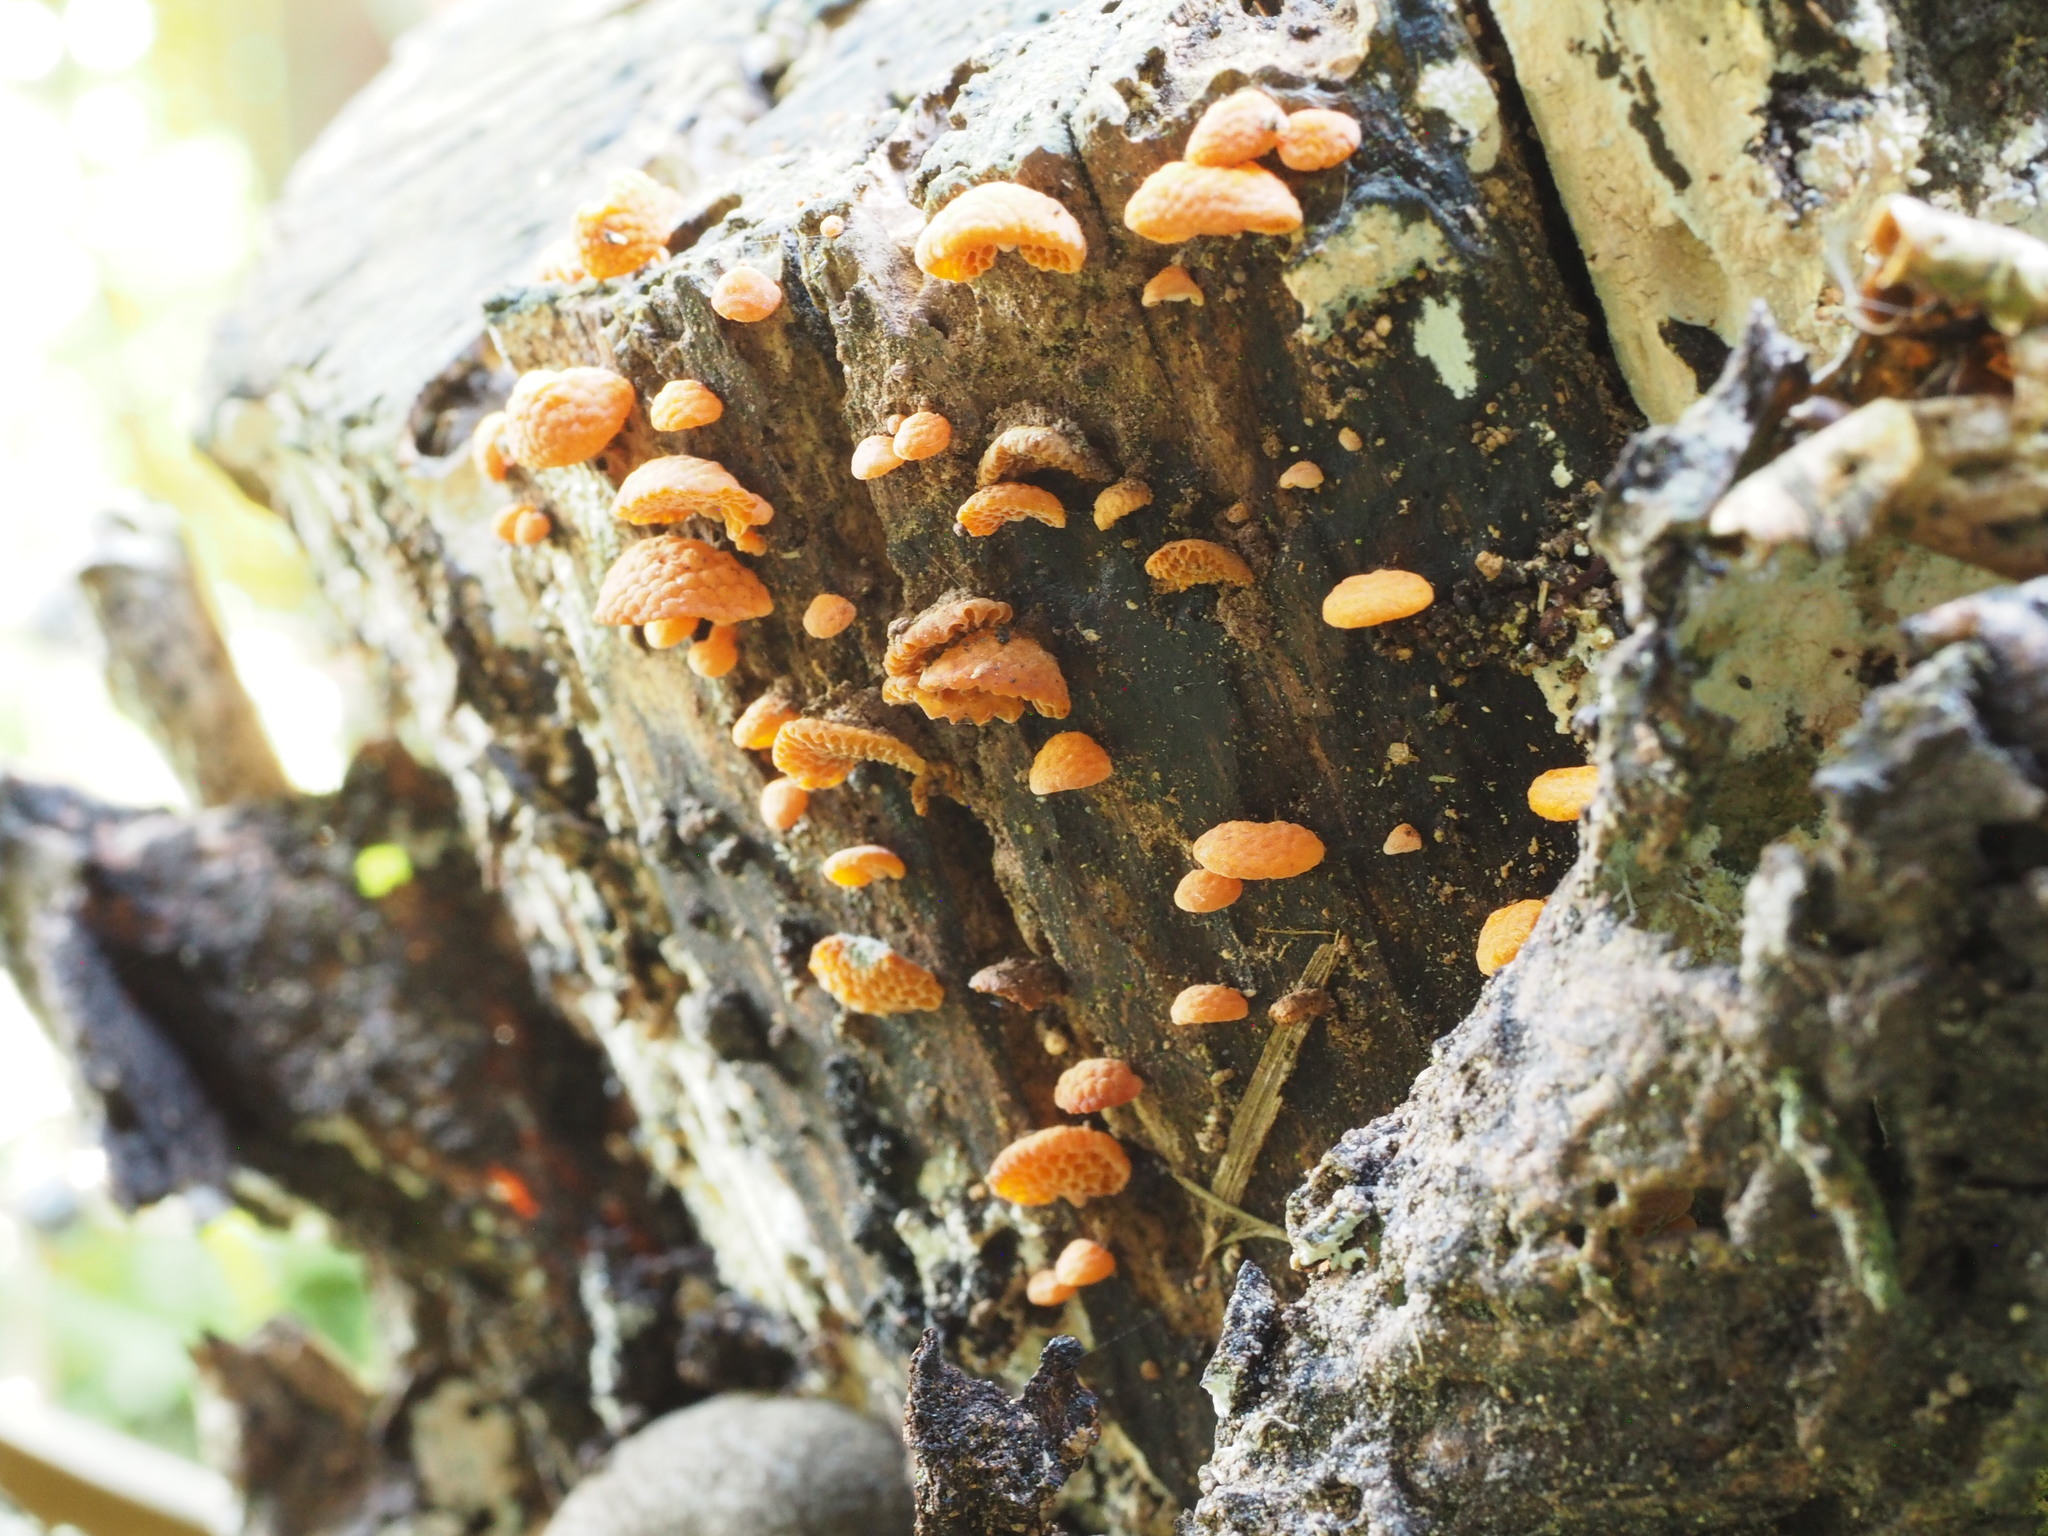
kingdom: Fungi
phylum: Basidiomycota
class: Agaricomycetes
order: Agaricales
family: Mycenaceae
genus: Favolaschia
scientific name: Favolaschia claudopus
